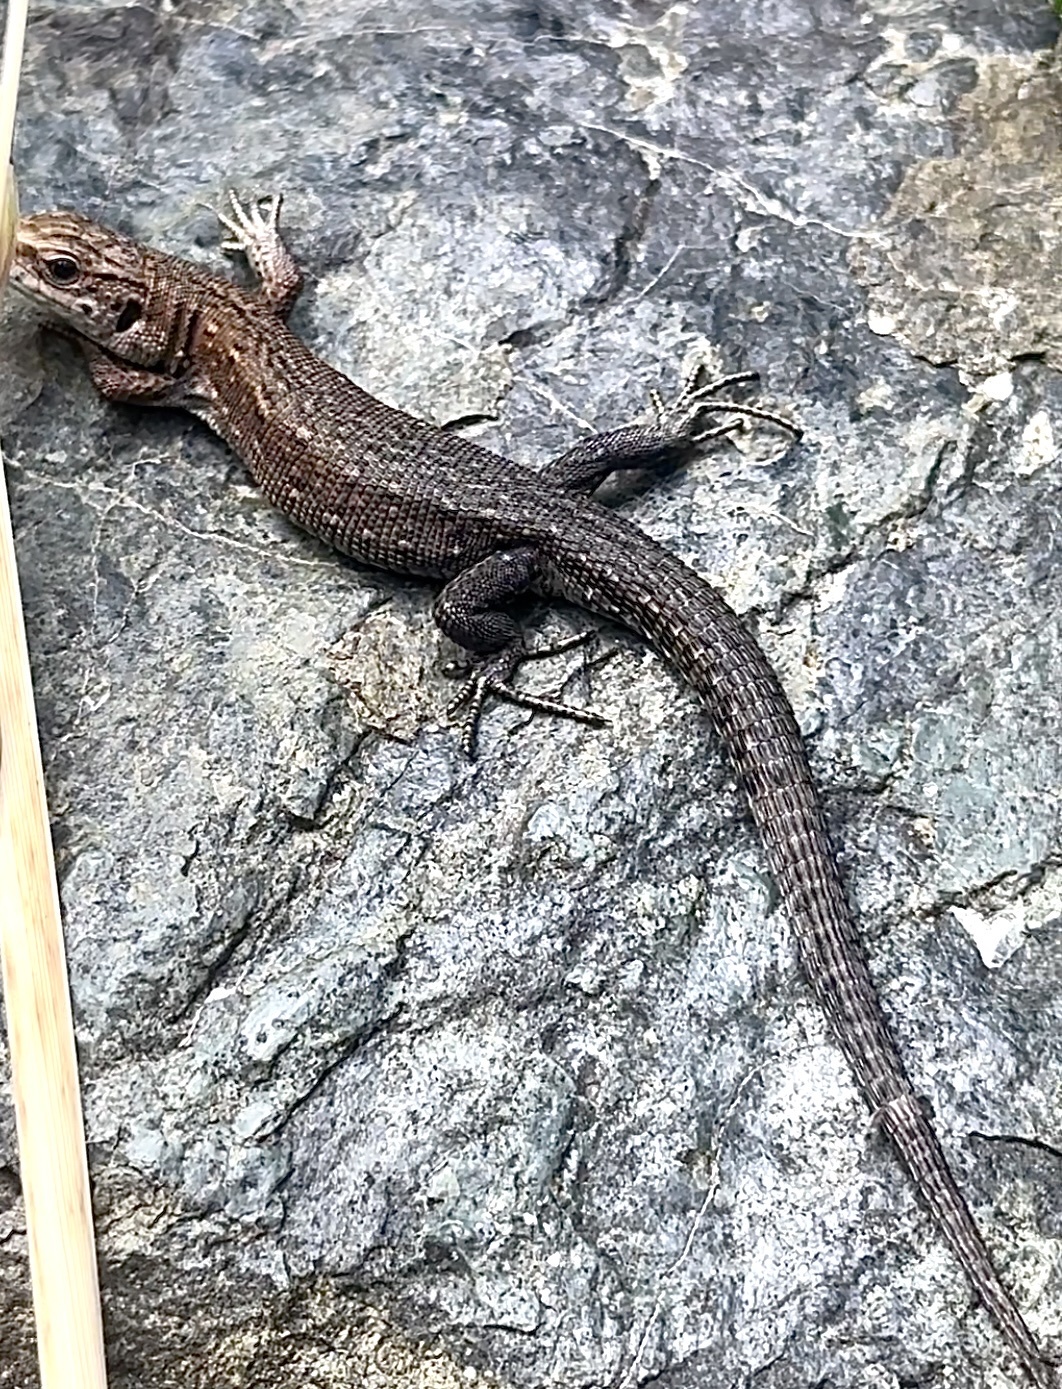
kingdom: Animalia
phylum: Chordata
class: Squamata
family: Lacertidae
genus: Zootoca
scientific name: Zootoca vivipara
